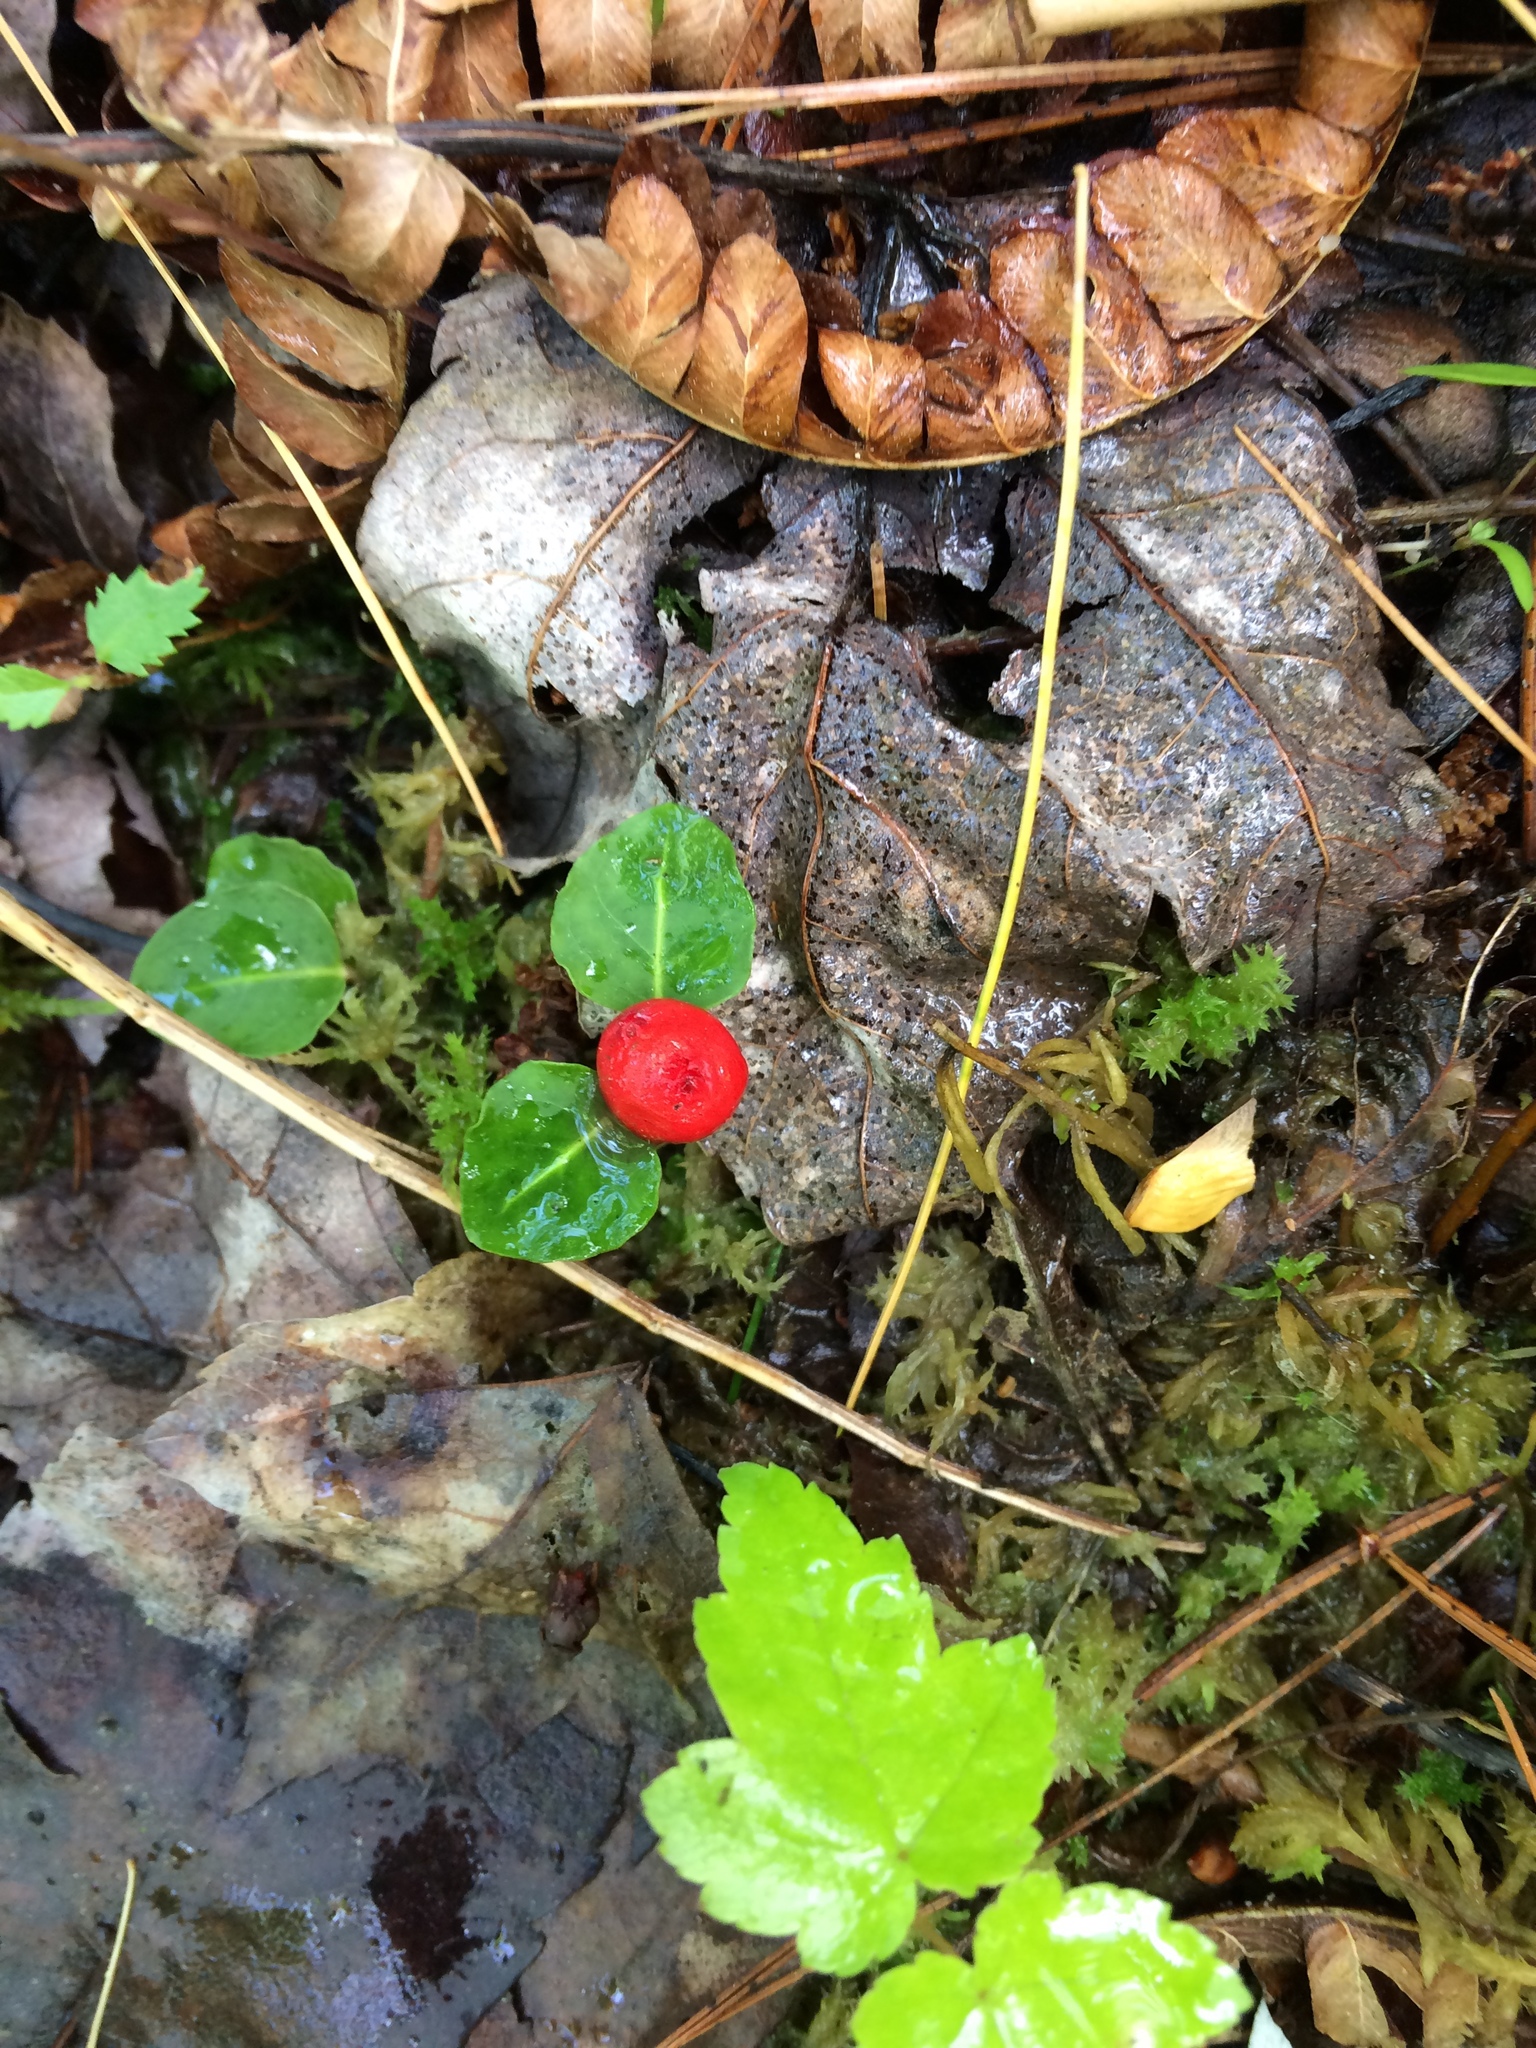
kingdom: Plantae
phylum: Tracheophyta
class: Magnoliopsida
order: Gentianales
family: Rubiaceae
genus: Mitchella
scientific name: Mitchella repens
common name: Partridge-berry
